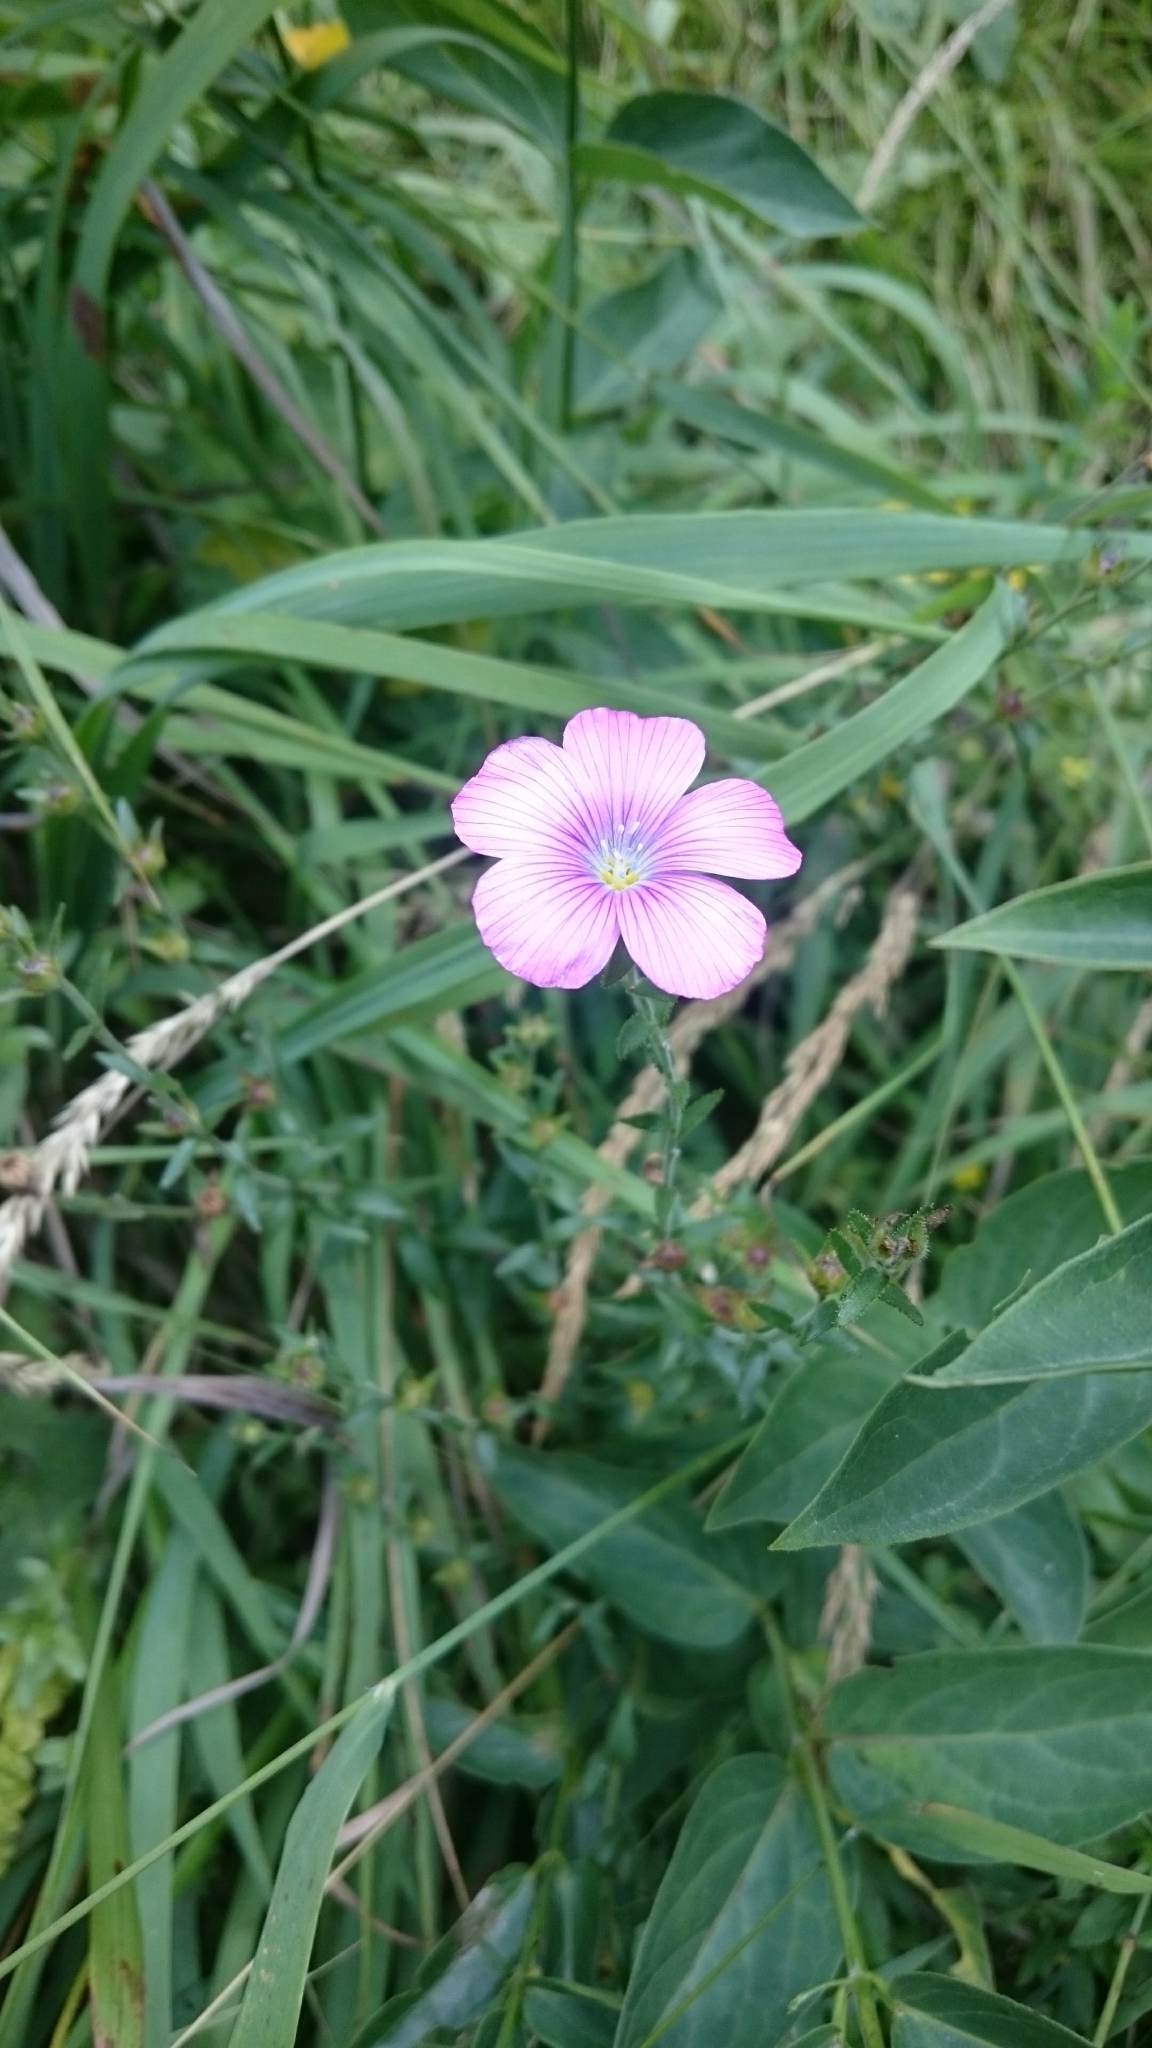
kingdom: Plantae
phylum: Tracheophyta
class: Magnoliopsida
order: Malpighiales
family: Linaceae
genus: Linum
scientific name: Linum viscosum
